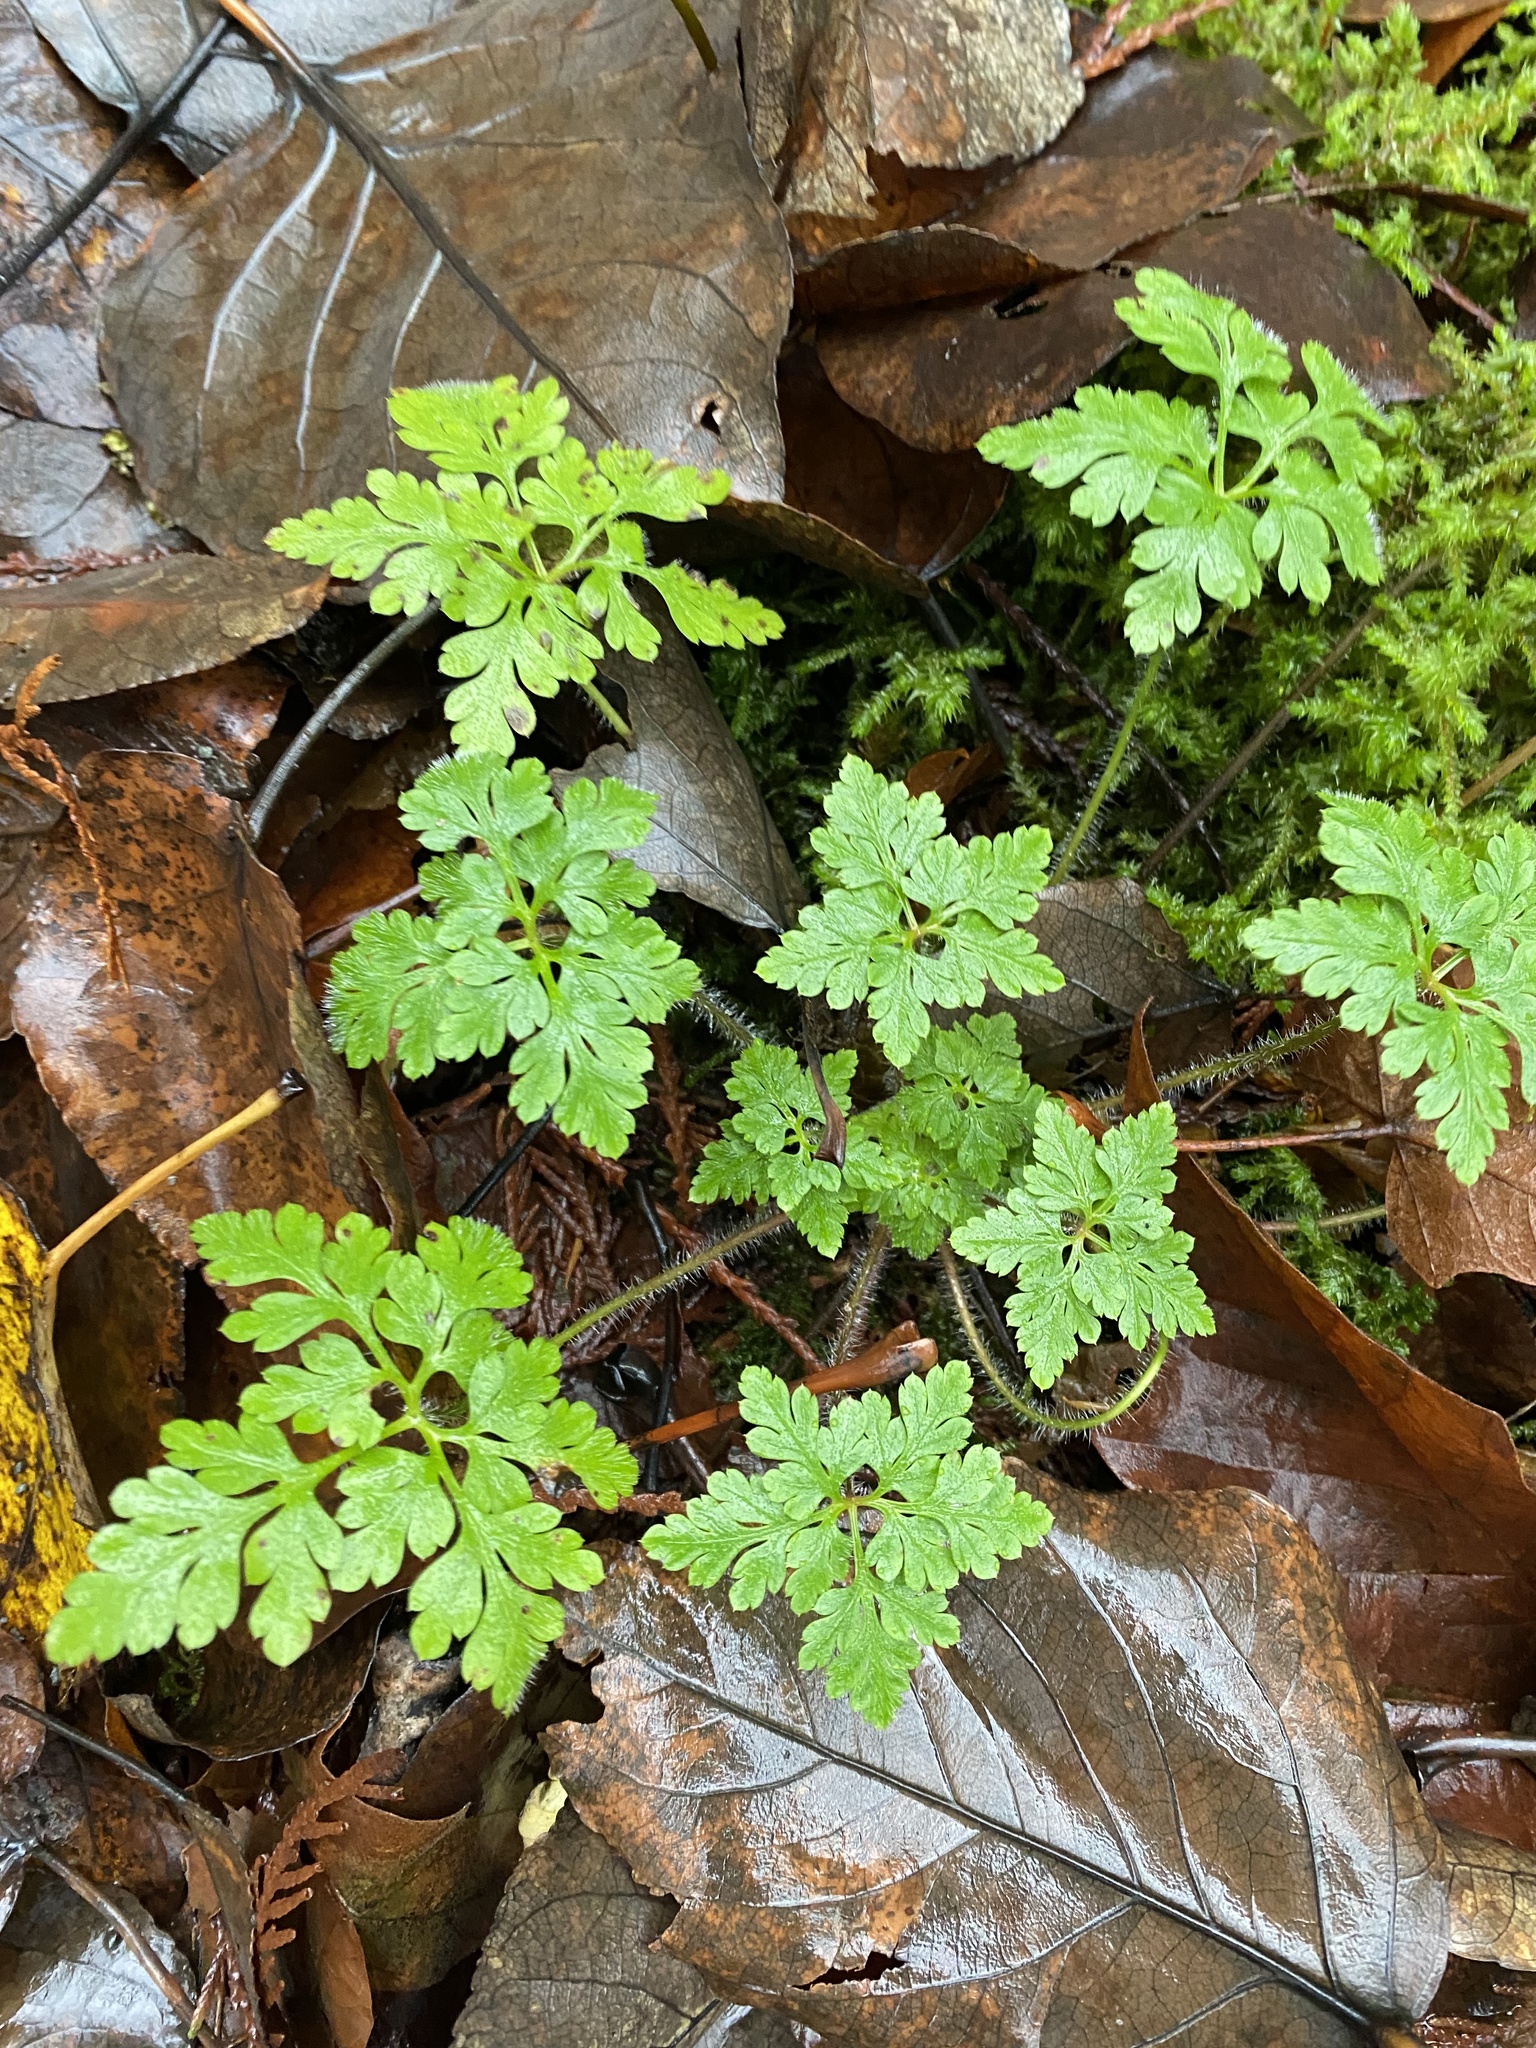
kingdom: Plantae
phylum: Tracheophyta
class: Magnoliopsida
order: Geraniales
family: Geraniaceae
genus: Geranium
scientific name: Geranium robertianum
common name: Herb-robert
